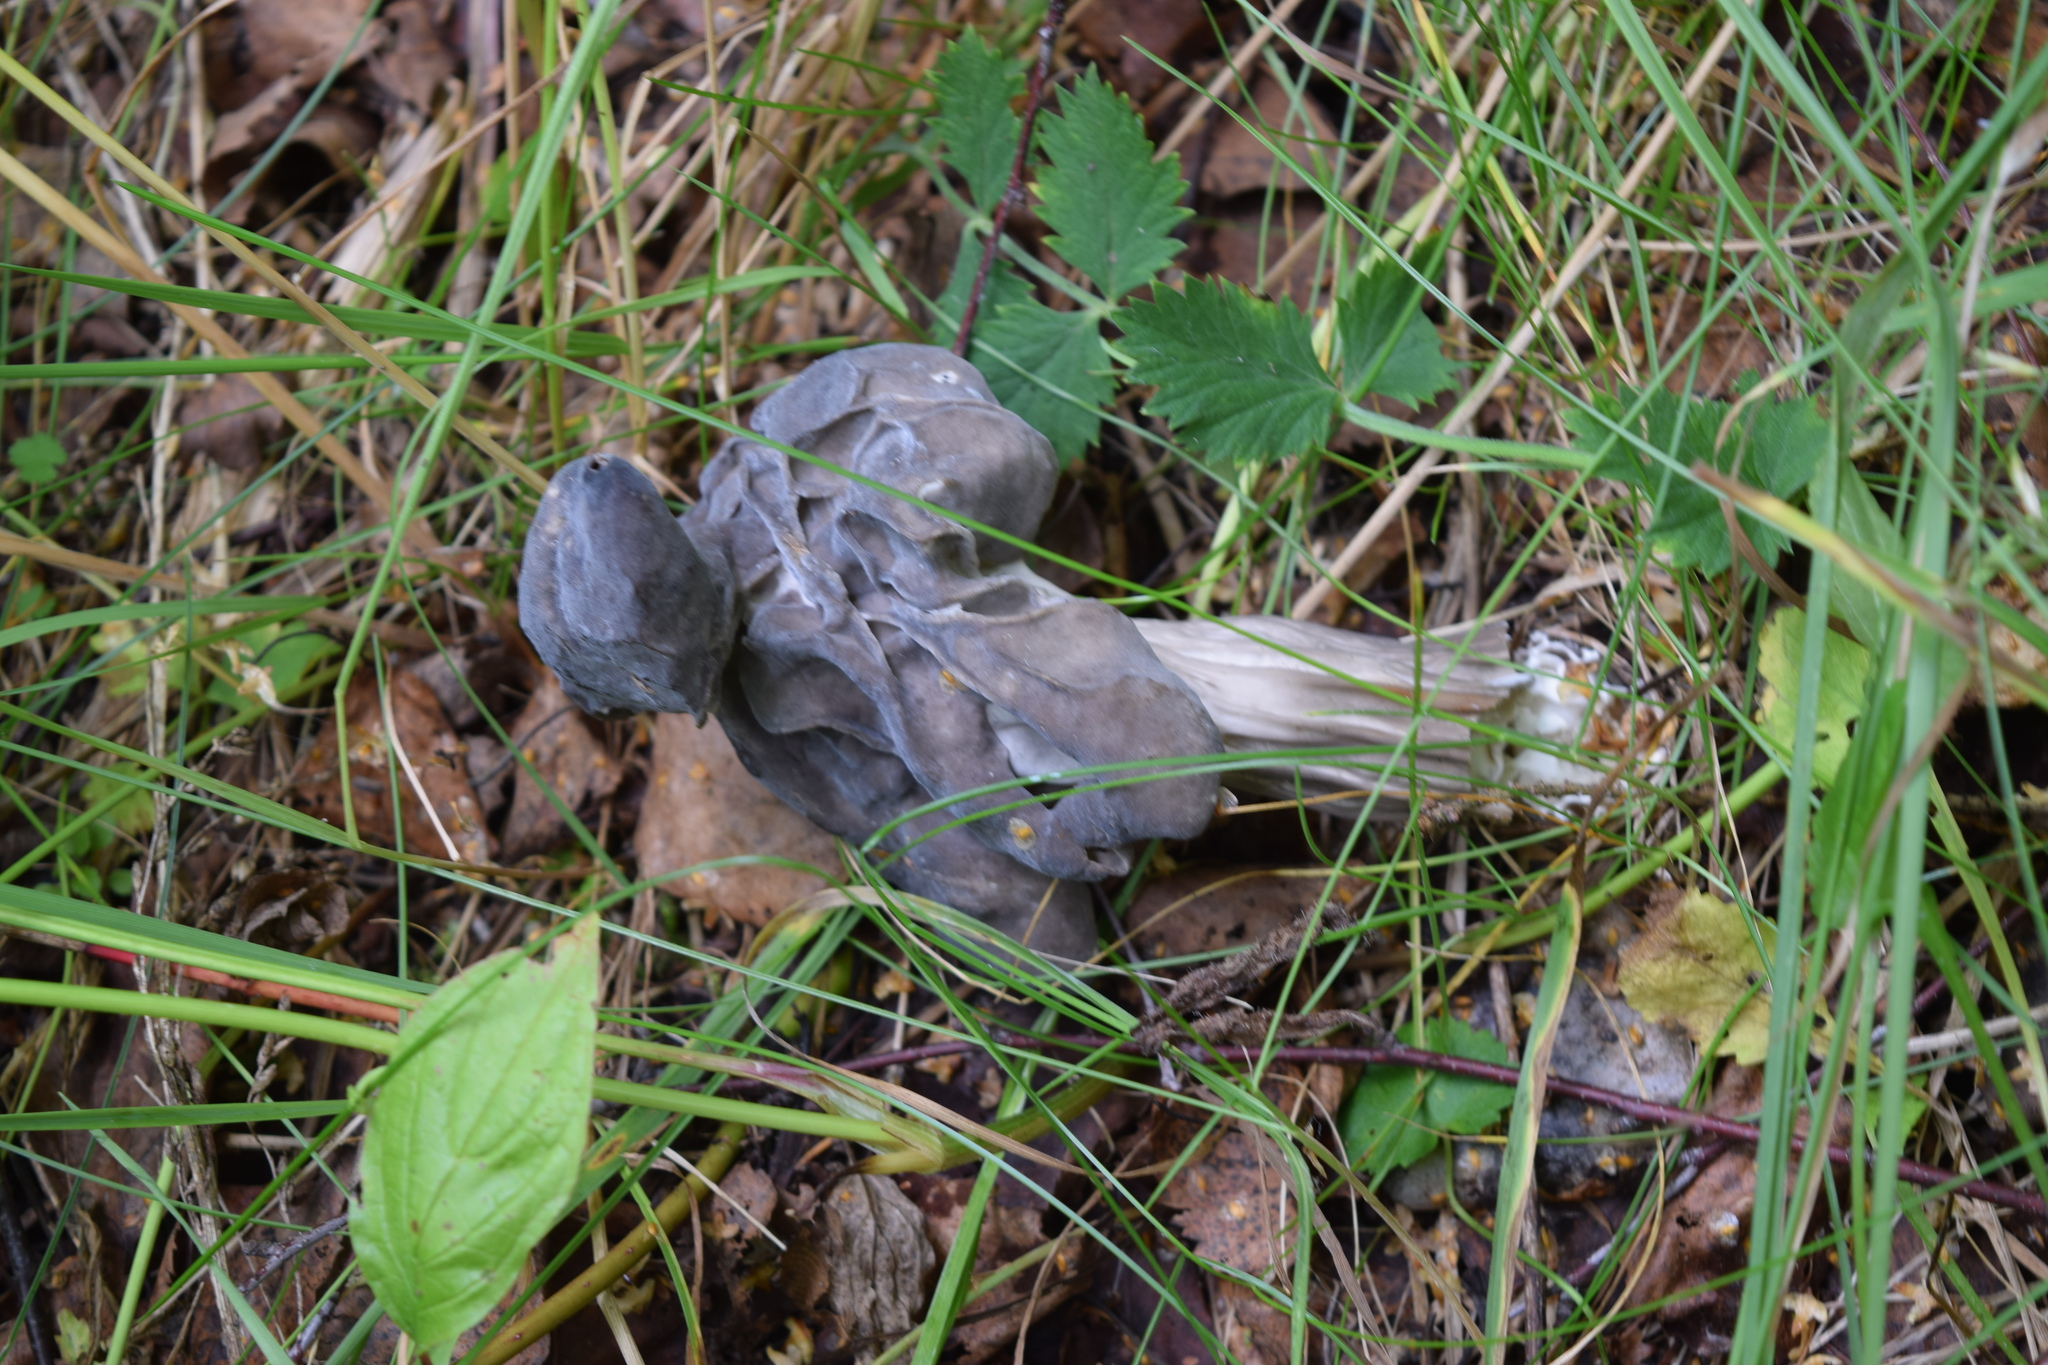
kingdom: Fungi
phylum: Ascomycota
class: Pezizomycetes
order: Pezizales
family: Helvellaceae
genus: Helvella
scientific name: Helvella lacunosa
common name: Elfin saddle
